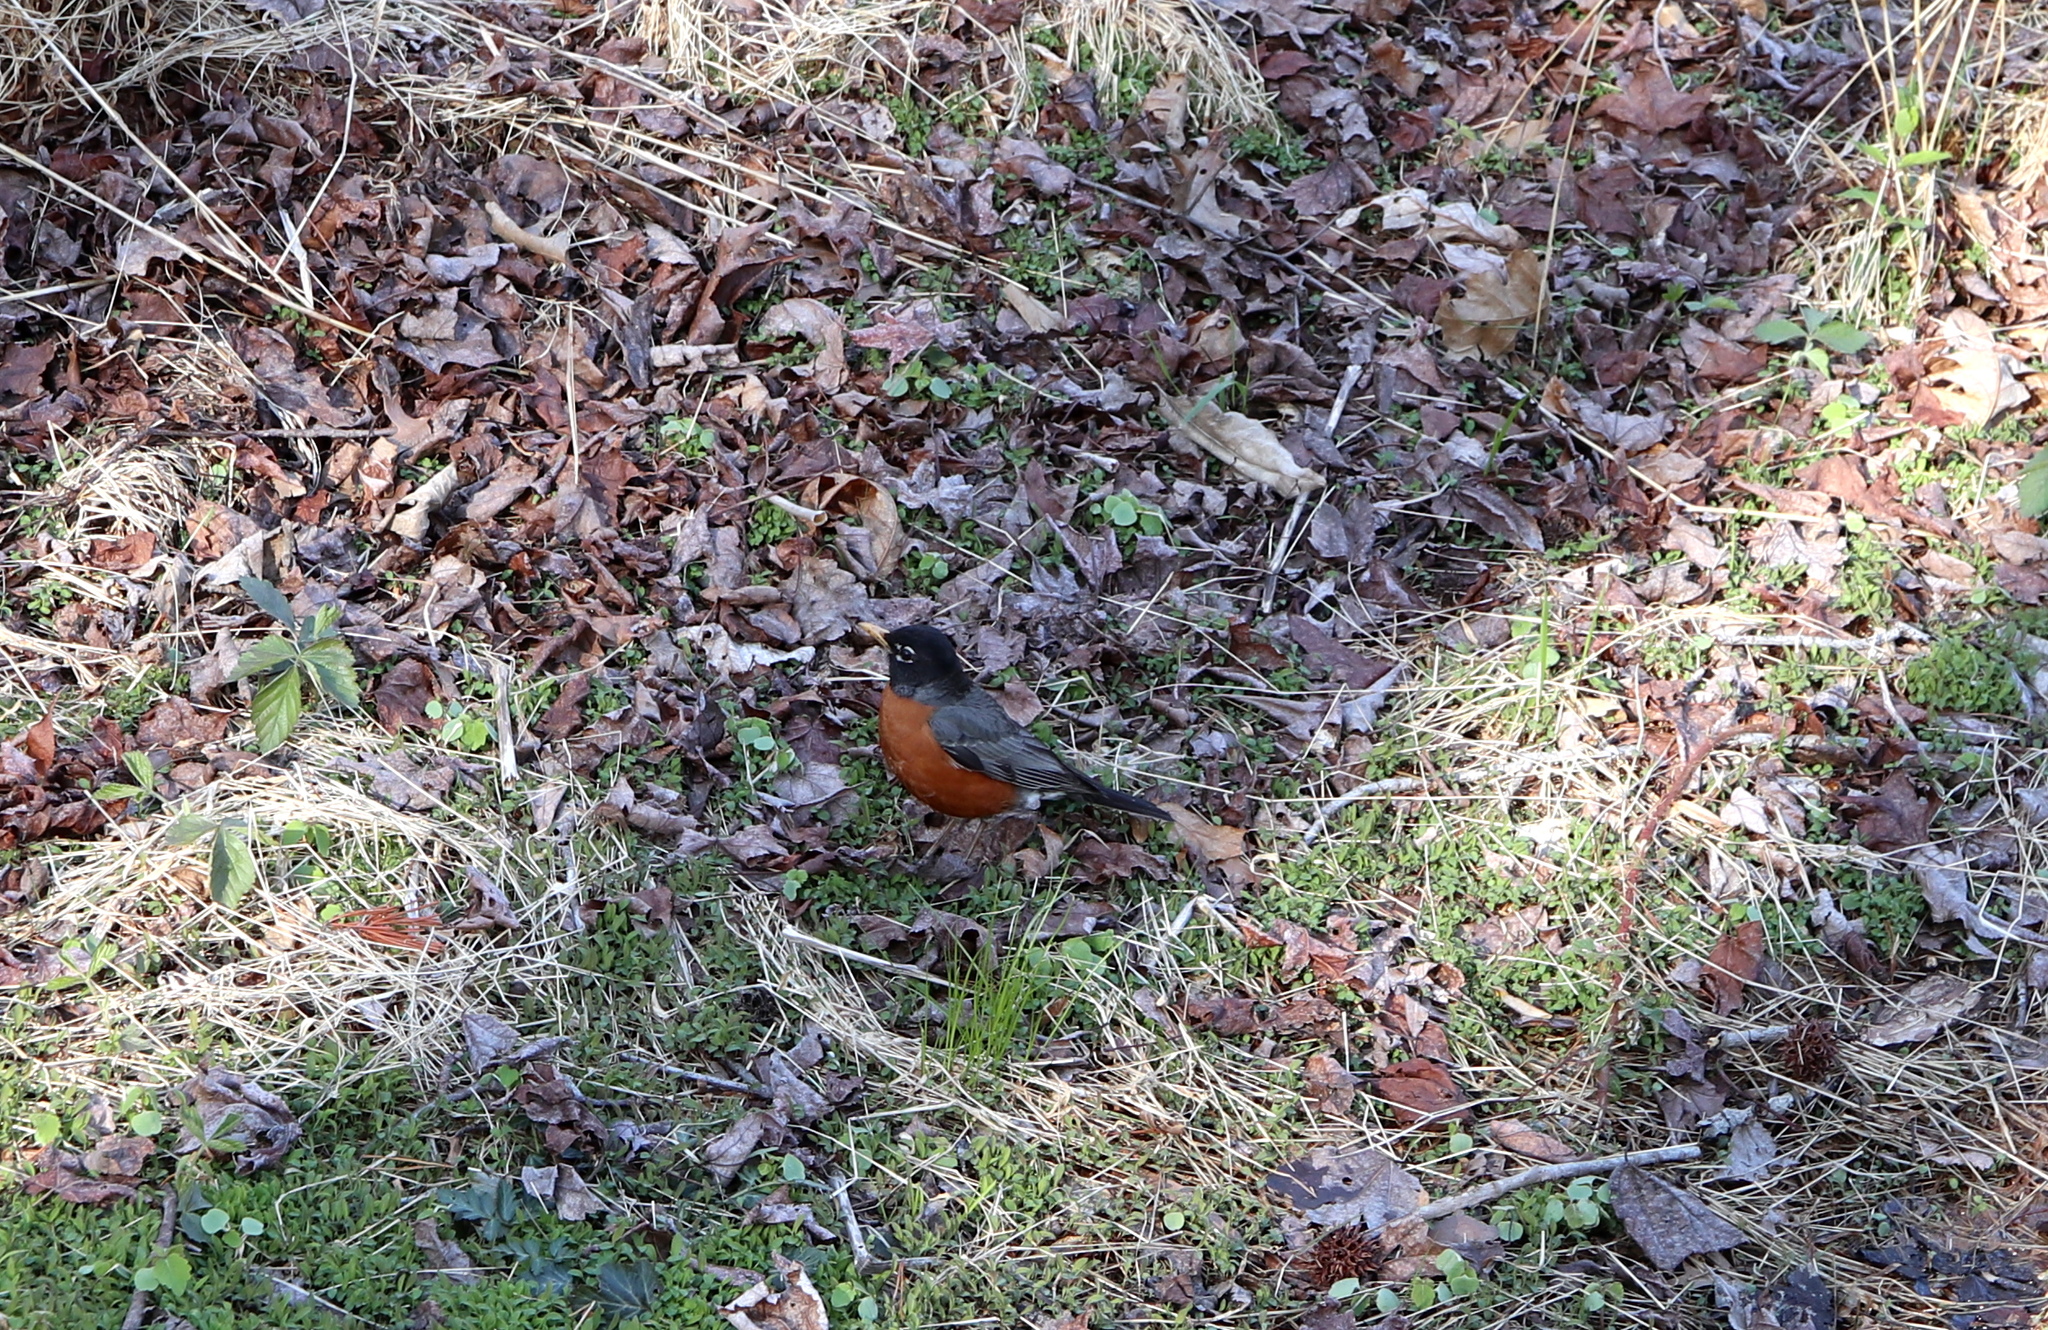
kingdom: Animalia
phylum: Chordata
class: Aves
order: Passeriformes
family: Turdidae
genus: Turdus
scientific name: Turdus migratorius
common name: American robin
